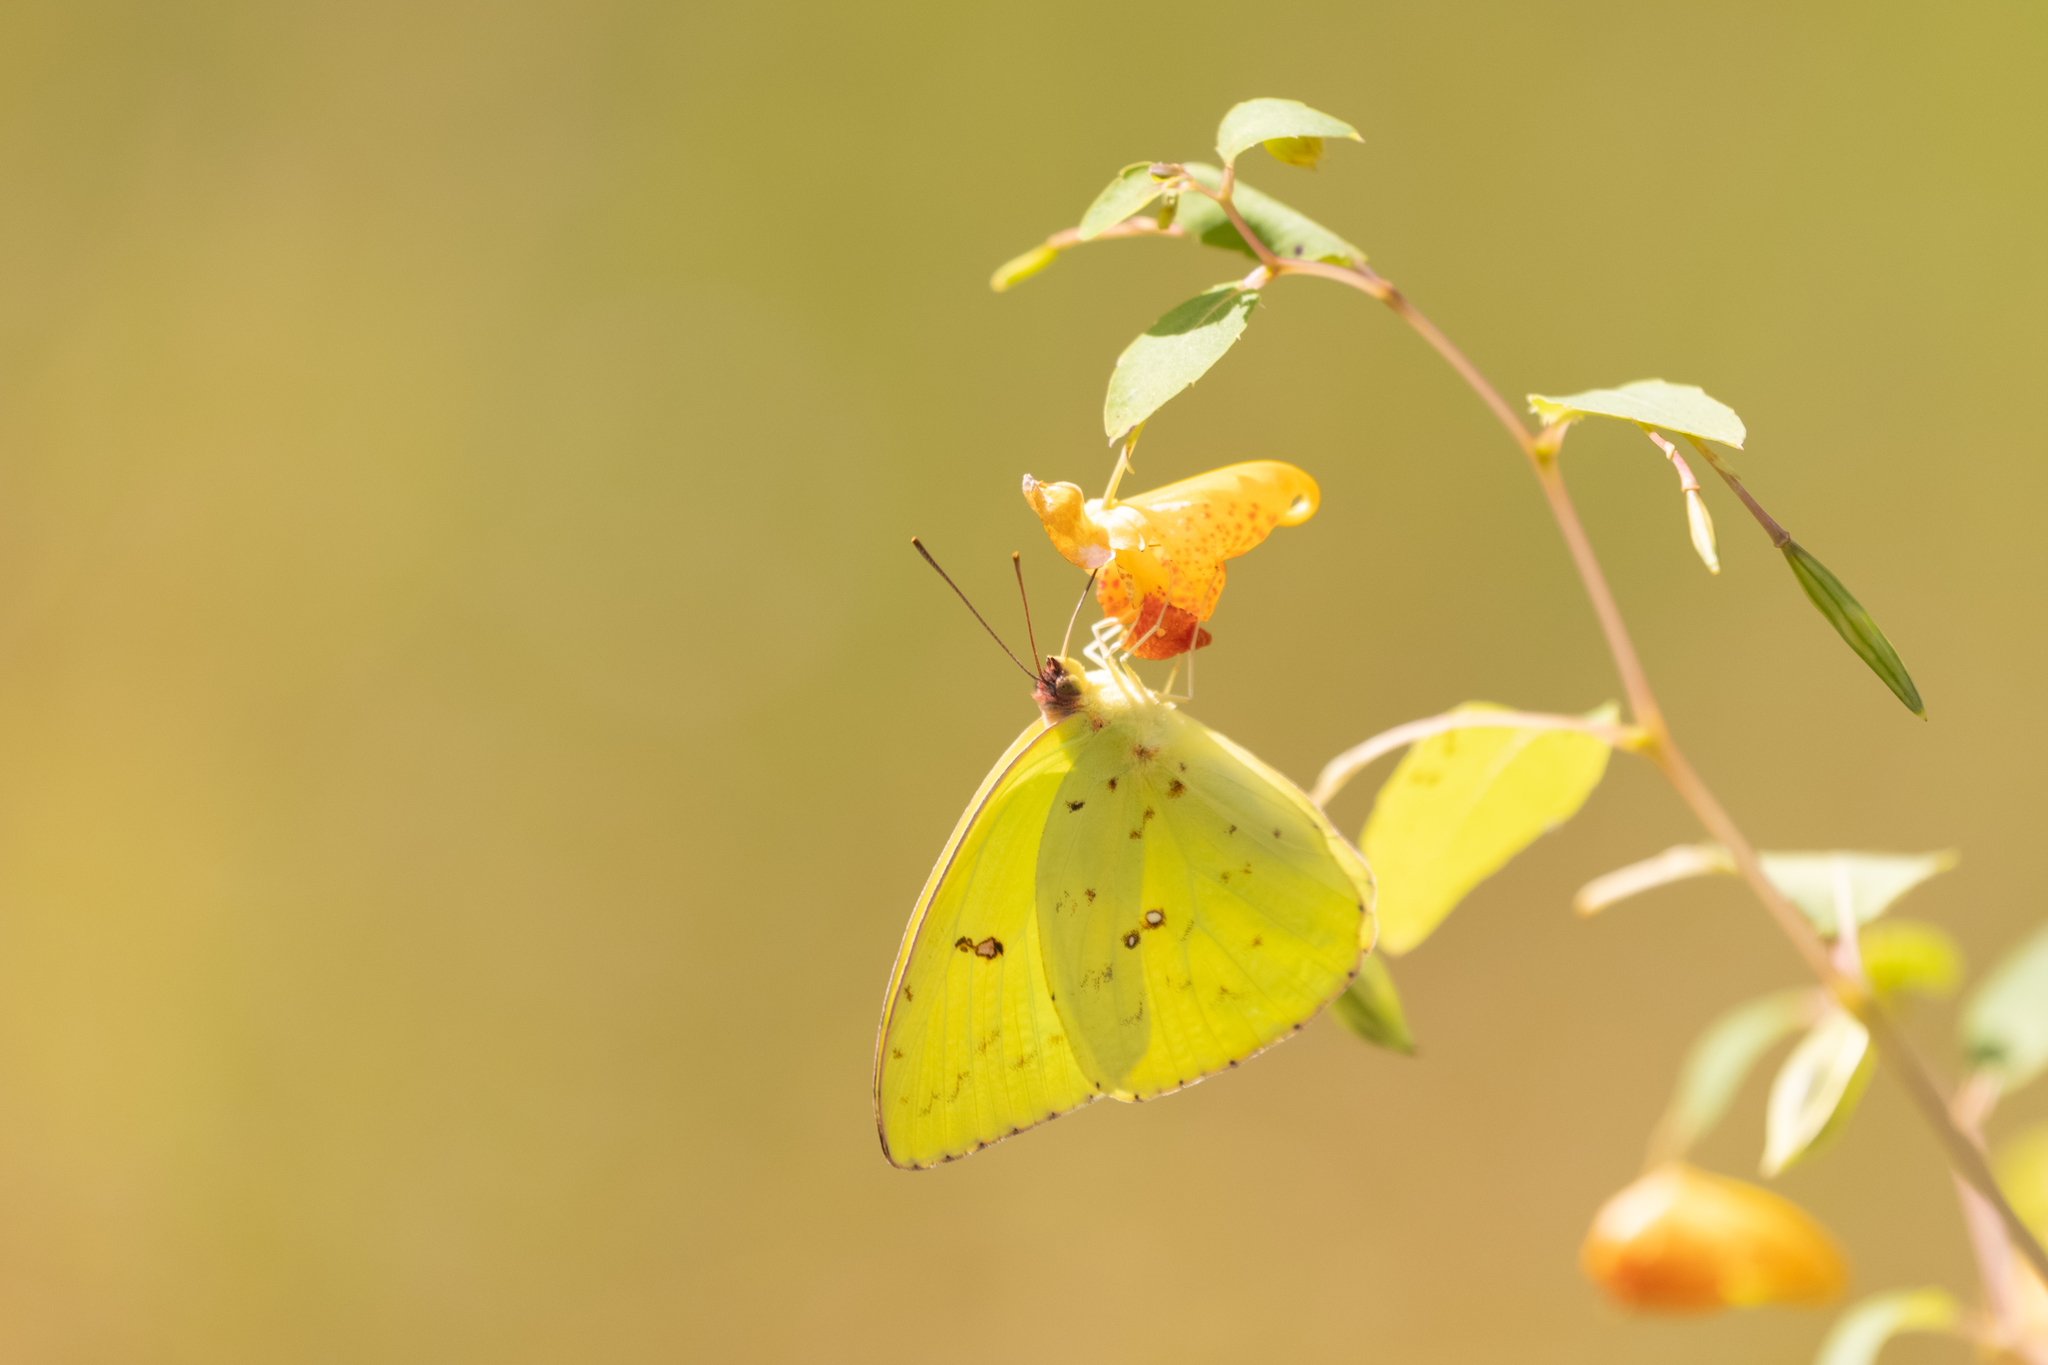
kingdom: Animalia
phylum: Arthropoda
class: Insecta
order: Lepidoptera
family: Pieridae
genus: Phoebis
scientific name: Phoebis sennae
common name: Cloudless sulphur
